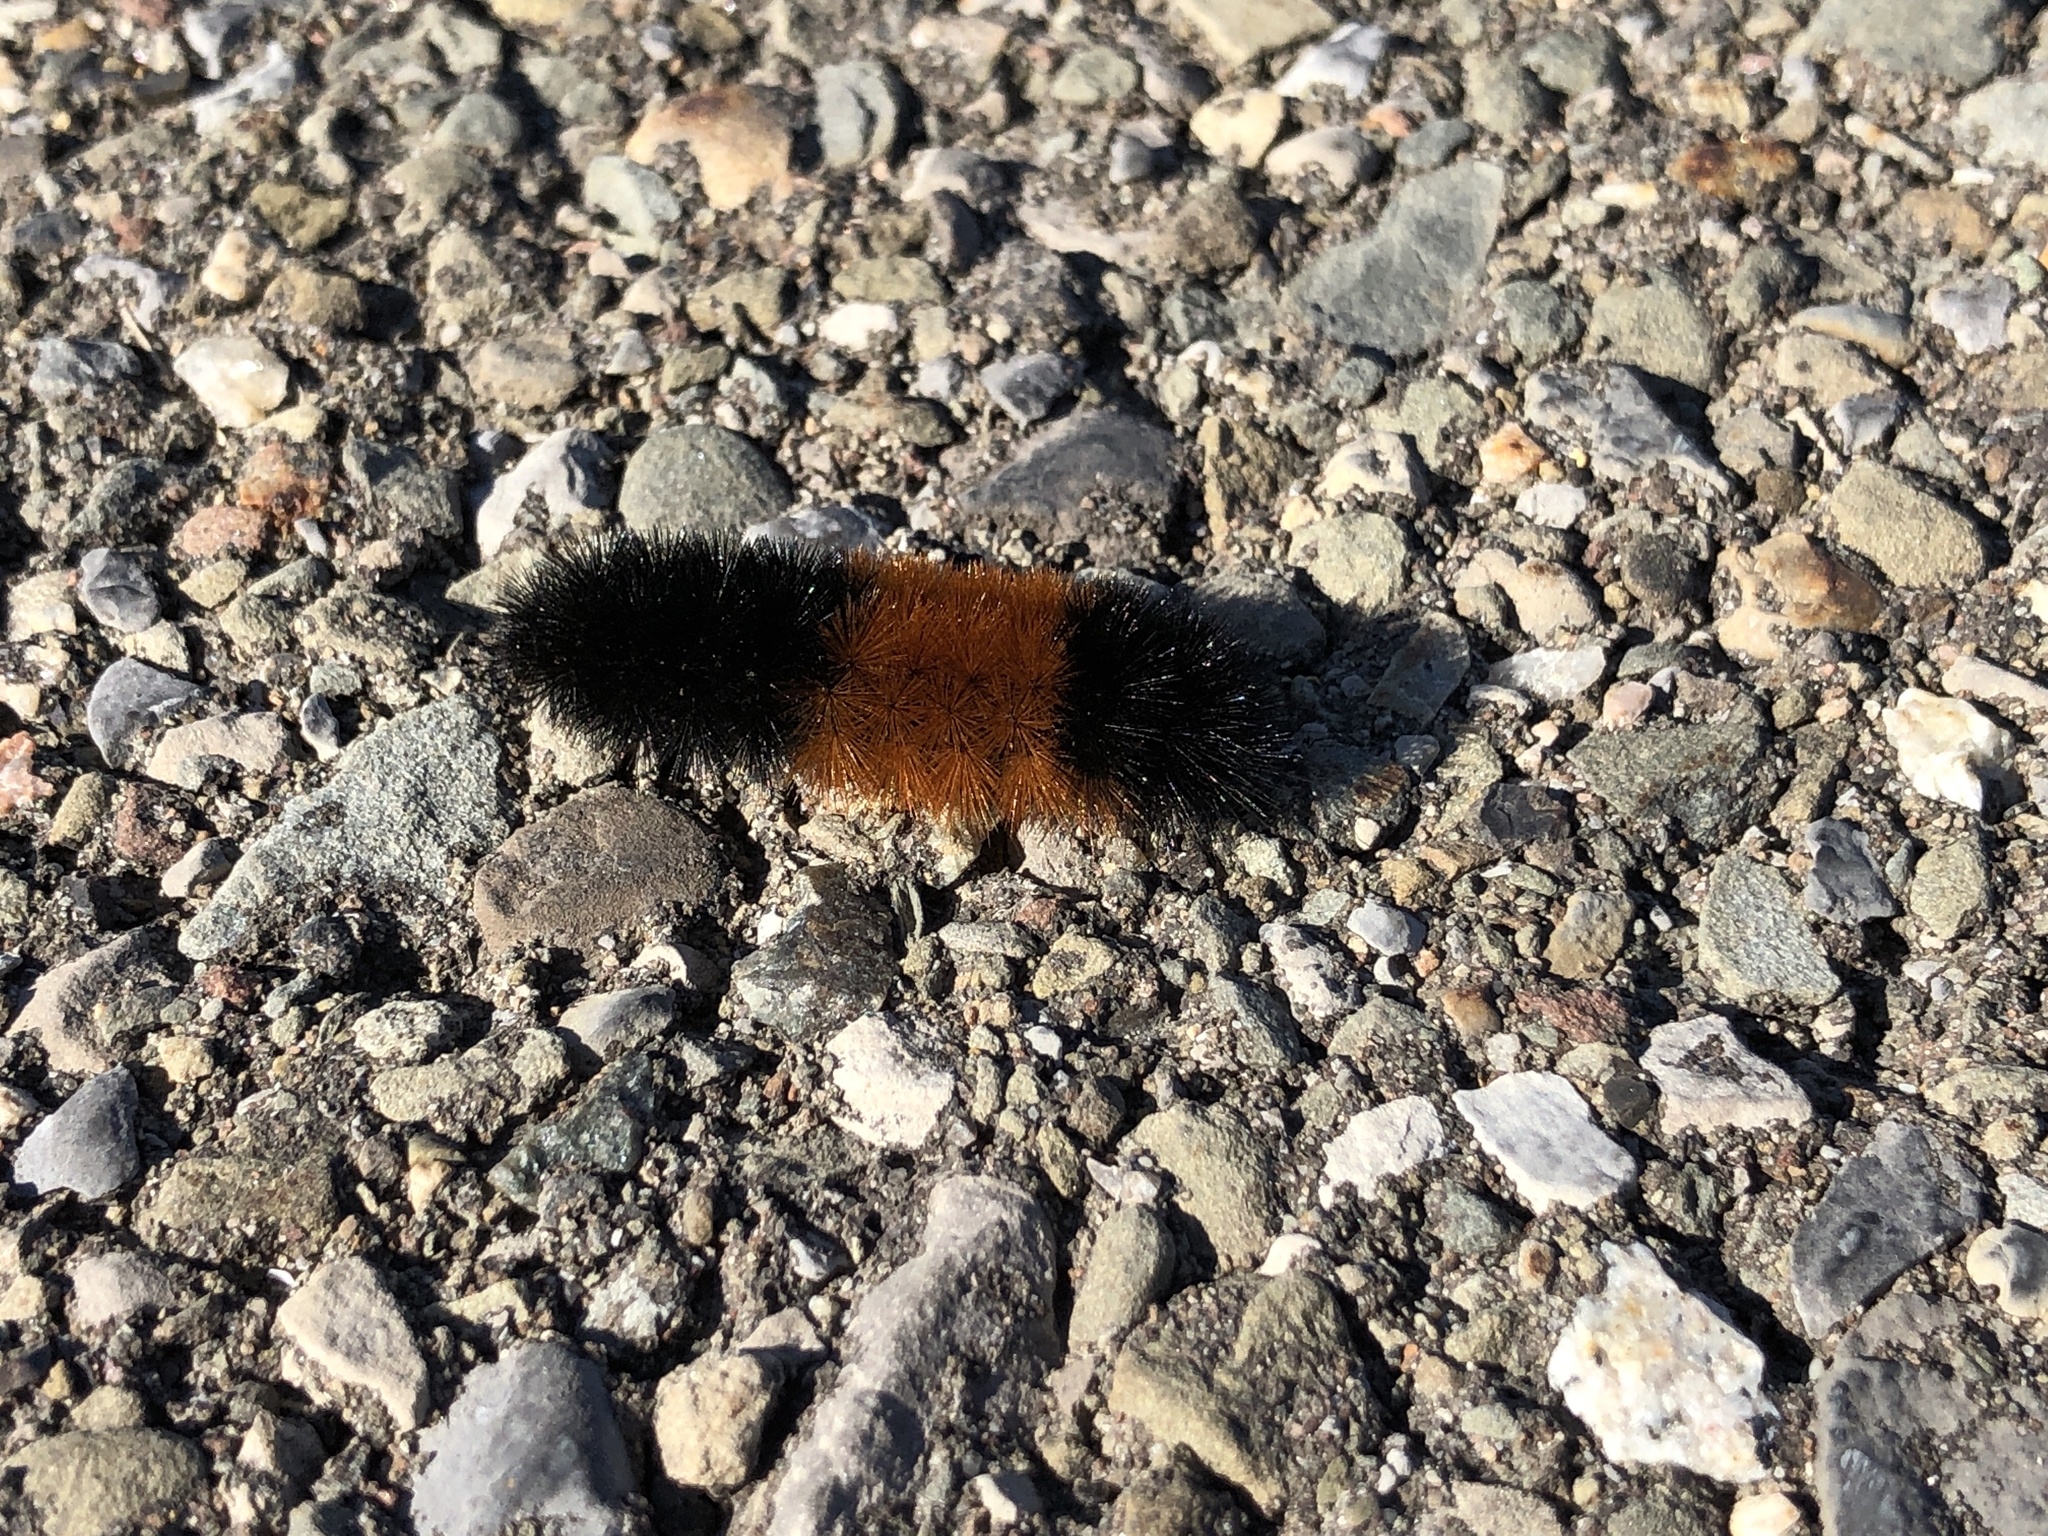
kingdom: Animalia
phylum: Arthropoda
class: Insecta
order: Lepidoptera
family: Erebidae
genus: Pyrrharctia
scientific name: Pyrrharctia isabella
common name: Isabella tiger moth
